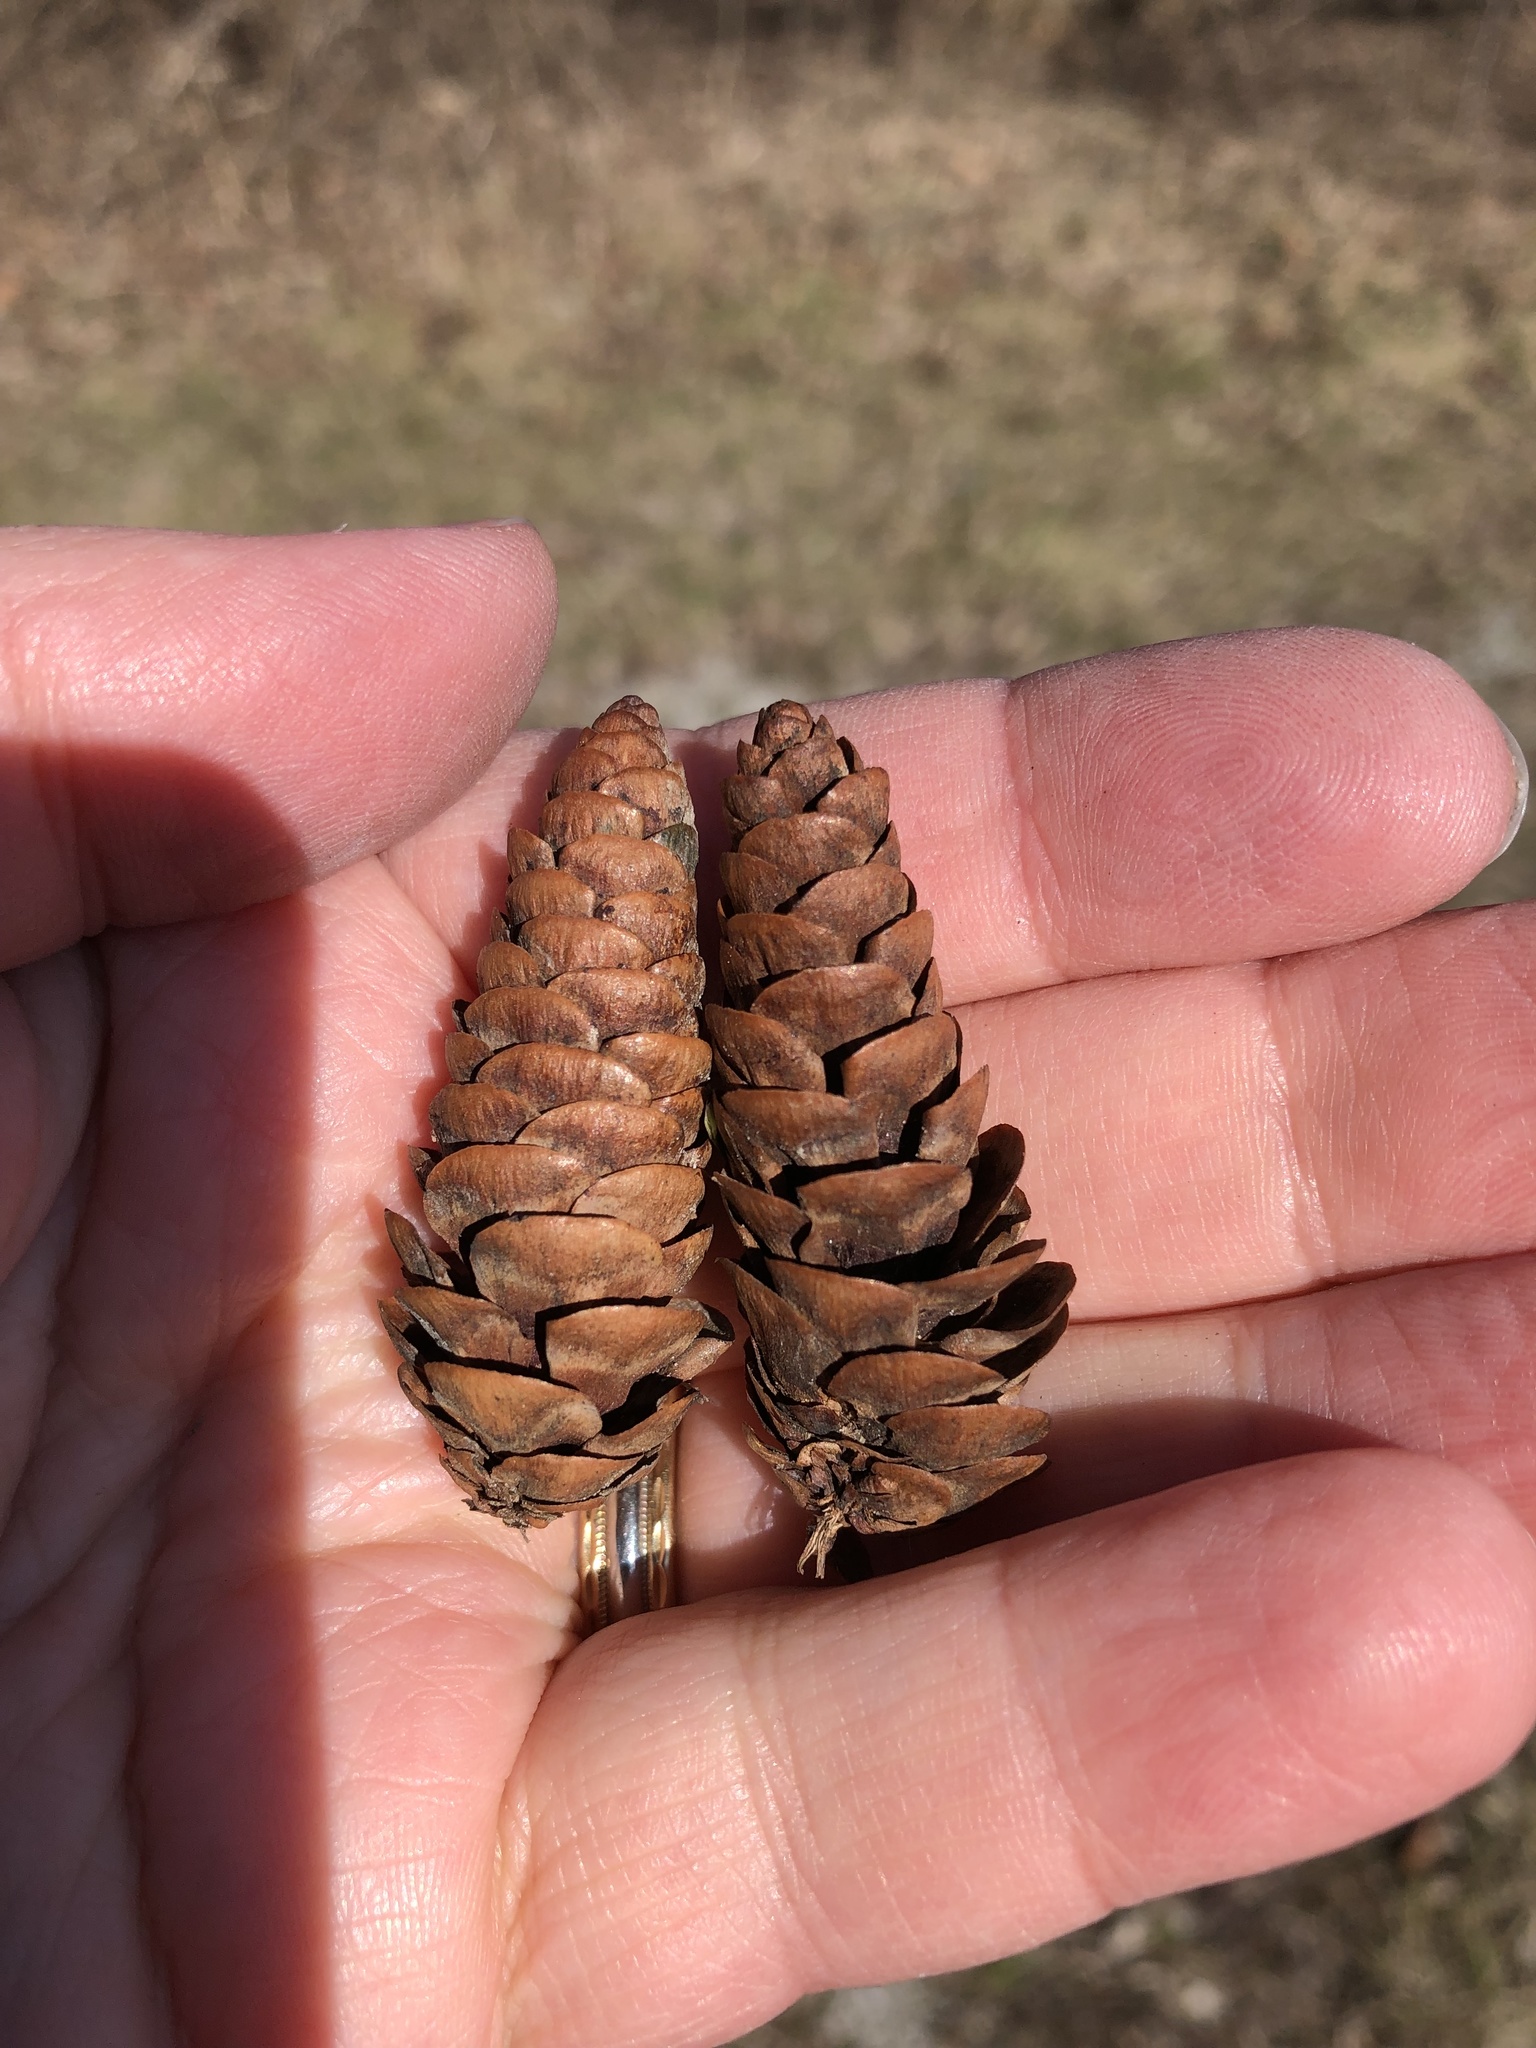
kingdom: Plantae
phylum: Tracheophyta
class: Pinopsida
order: Pinales
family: Pinaceae
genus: Picea
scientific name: Picea glauca
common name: White spruce
